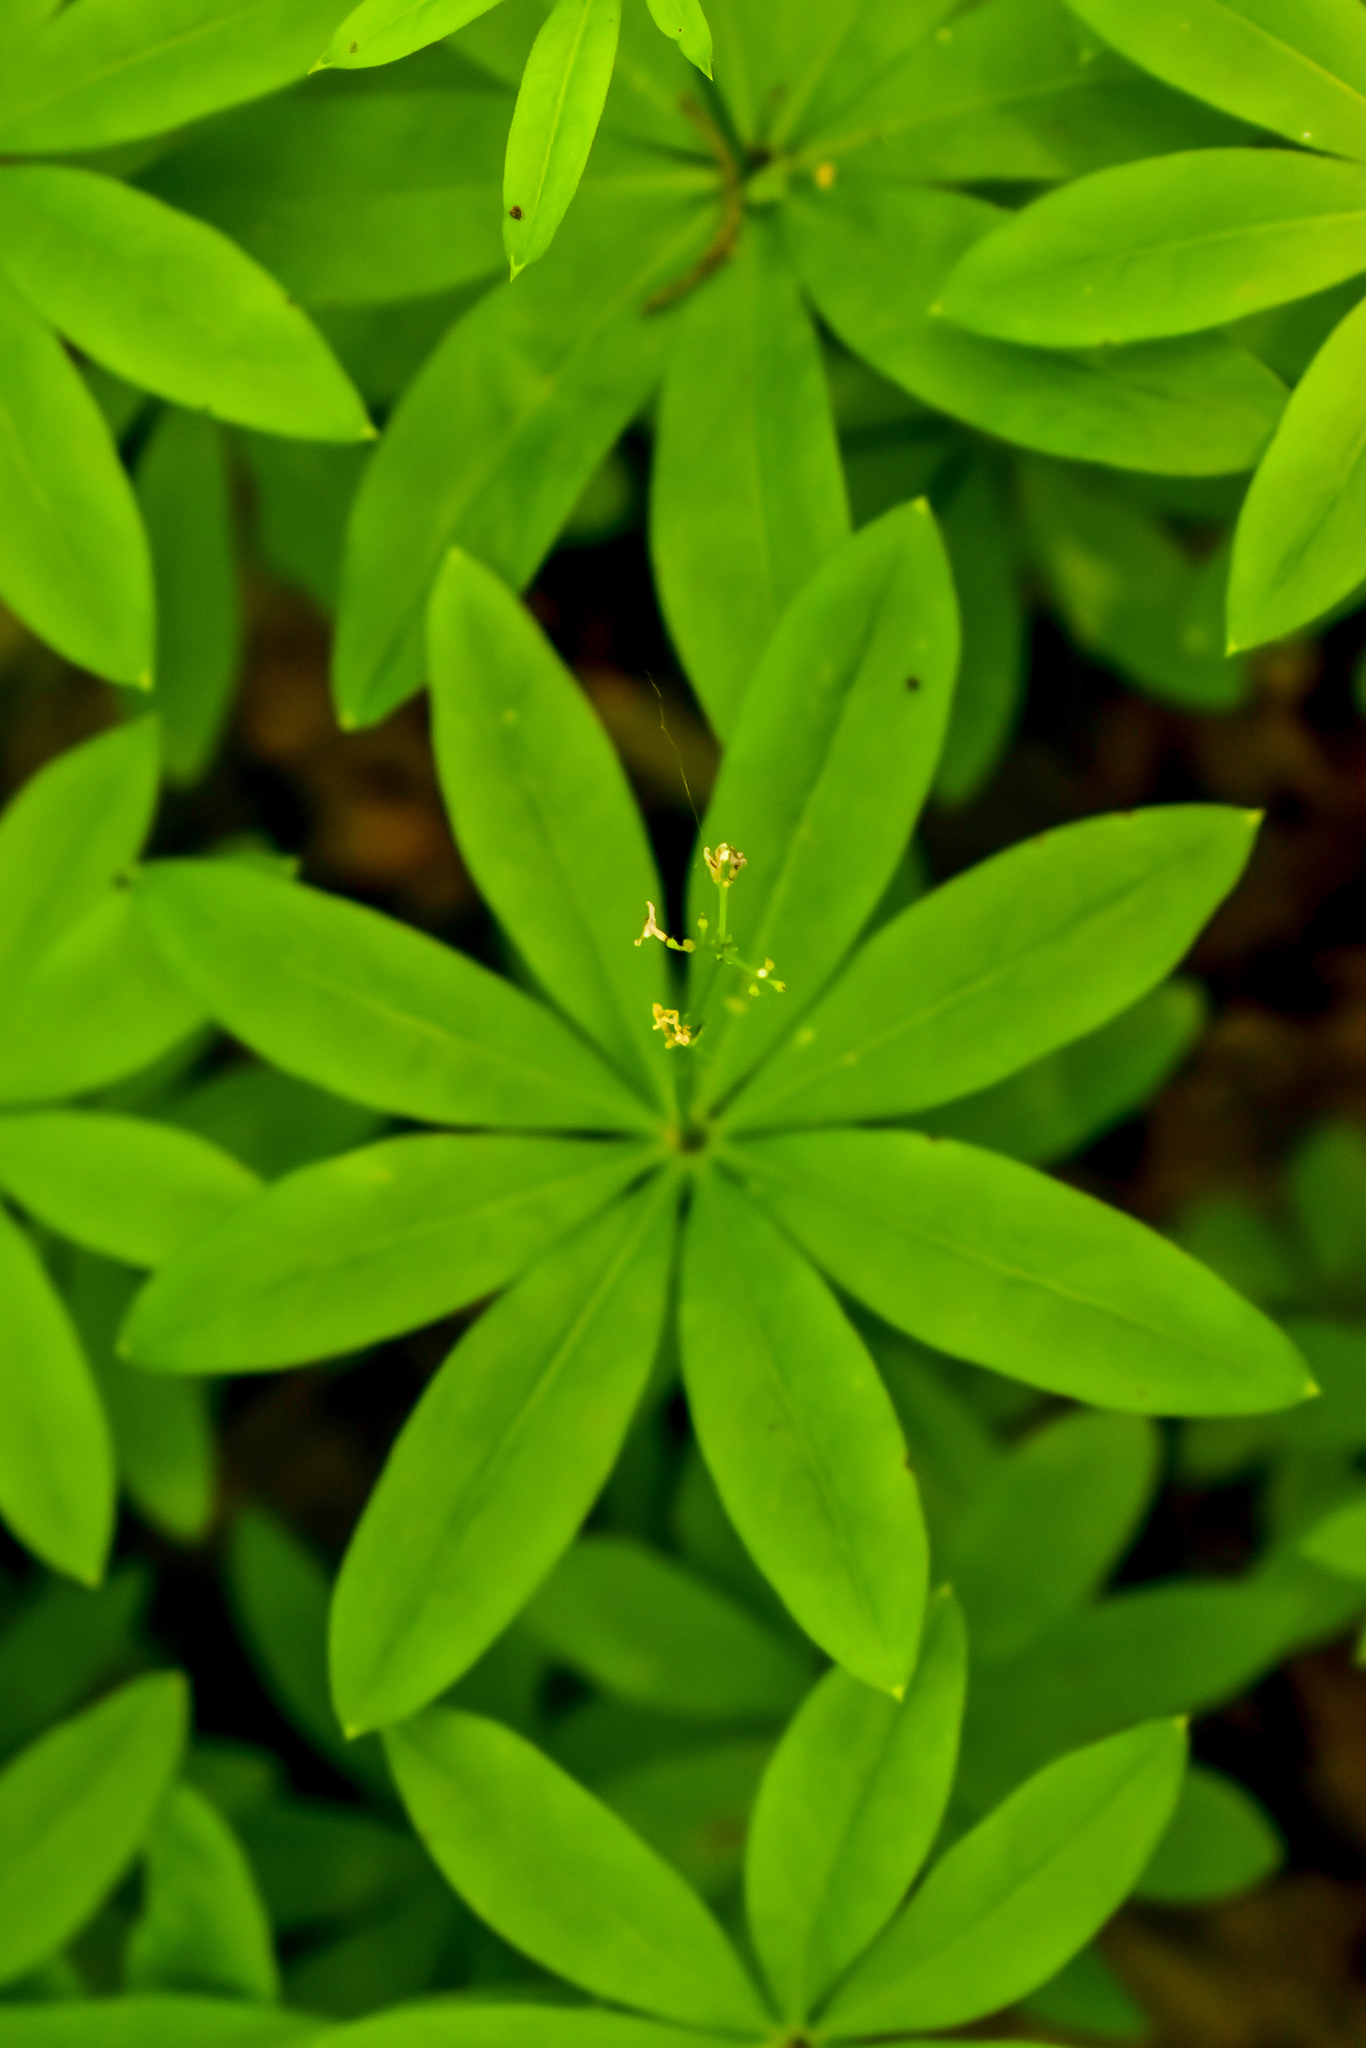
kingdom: Plantae
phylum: Tracheophyta
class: Magnoliopsida
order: Gentianales
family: Rubiaceae
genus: Galium
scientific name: Galium odoratum
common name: Sweet woodruff
